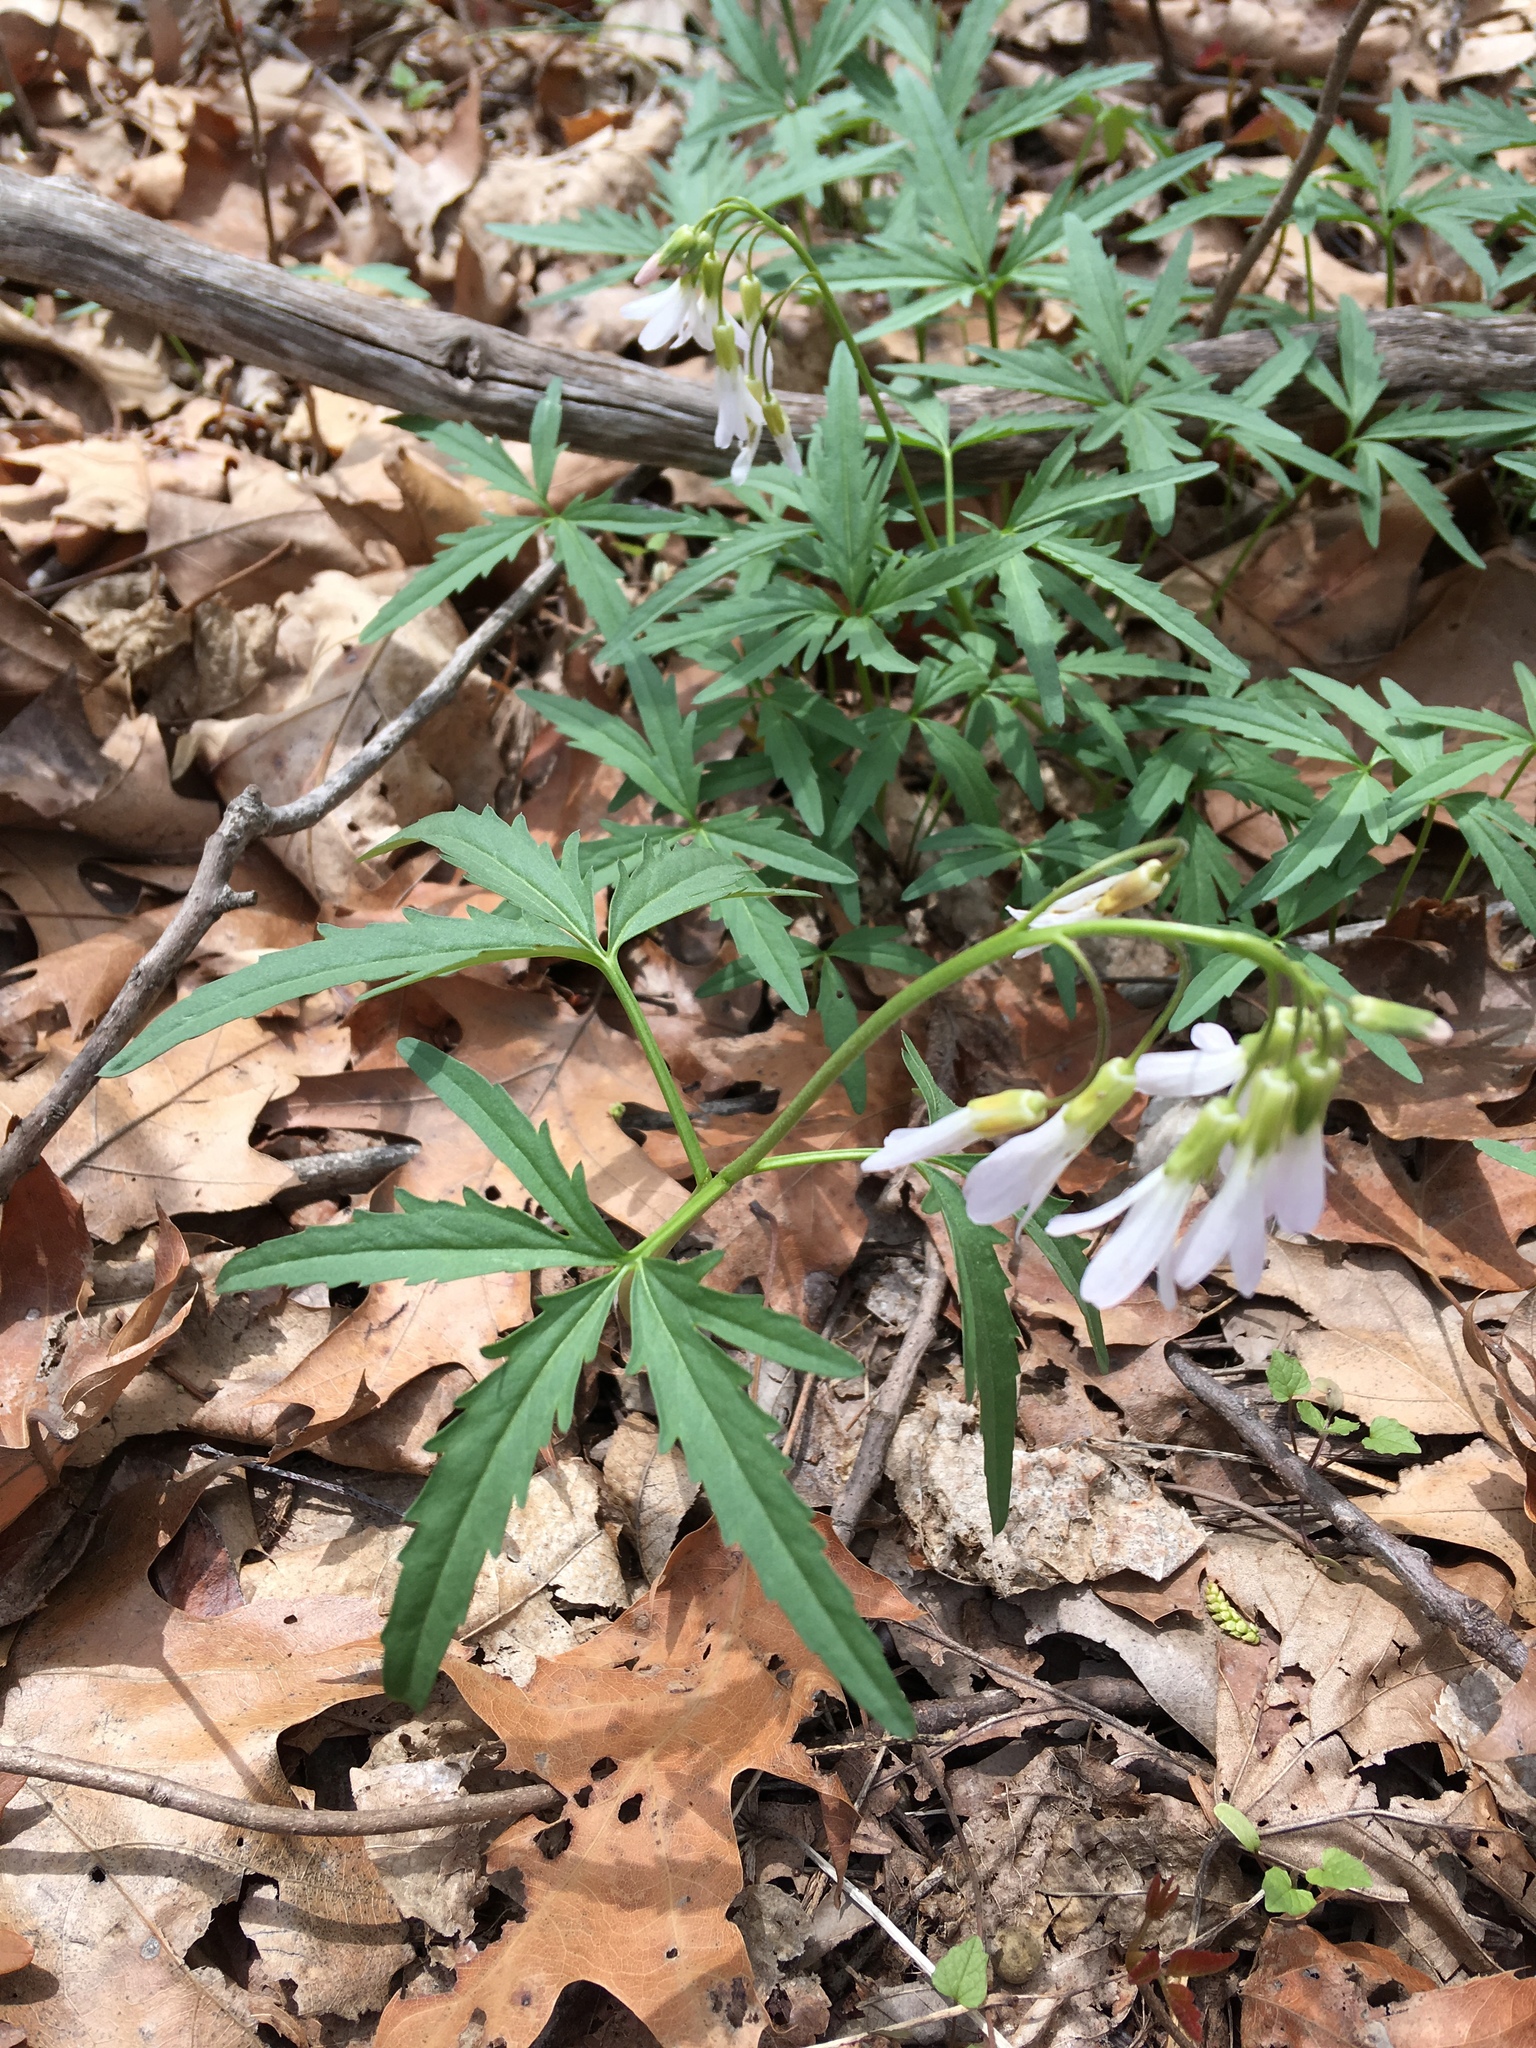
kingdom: Plantae
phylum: Tracheophyta
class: Magnoliopsida
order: Brassicales
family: Brassicaceae
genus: Cardamine
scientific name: Cardamine concatenata
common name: Cut-leaf toothcup
